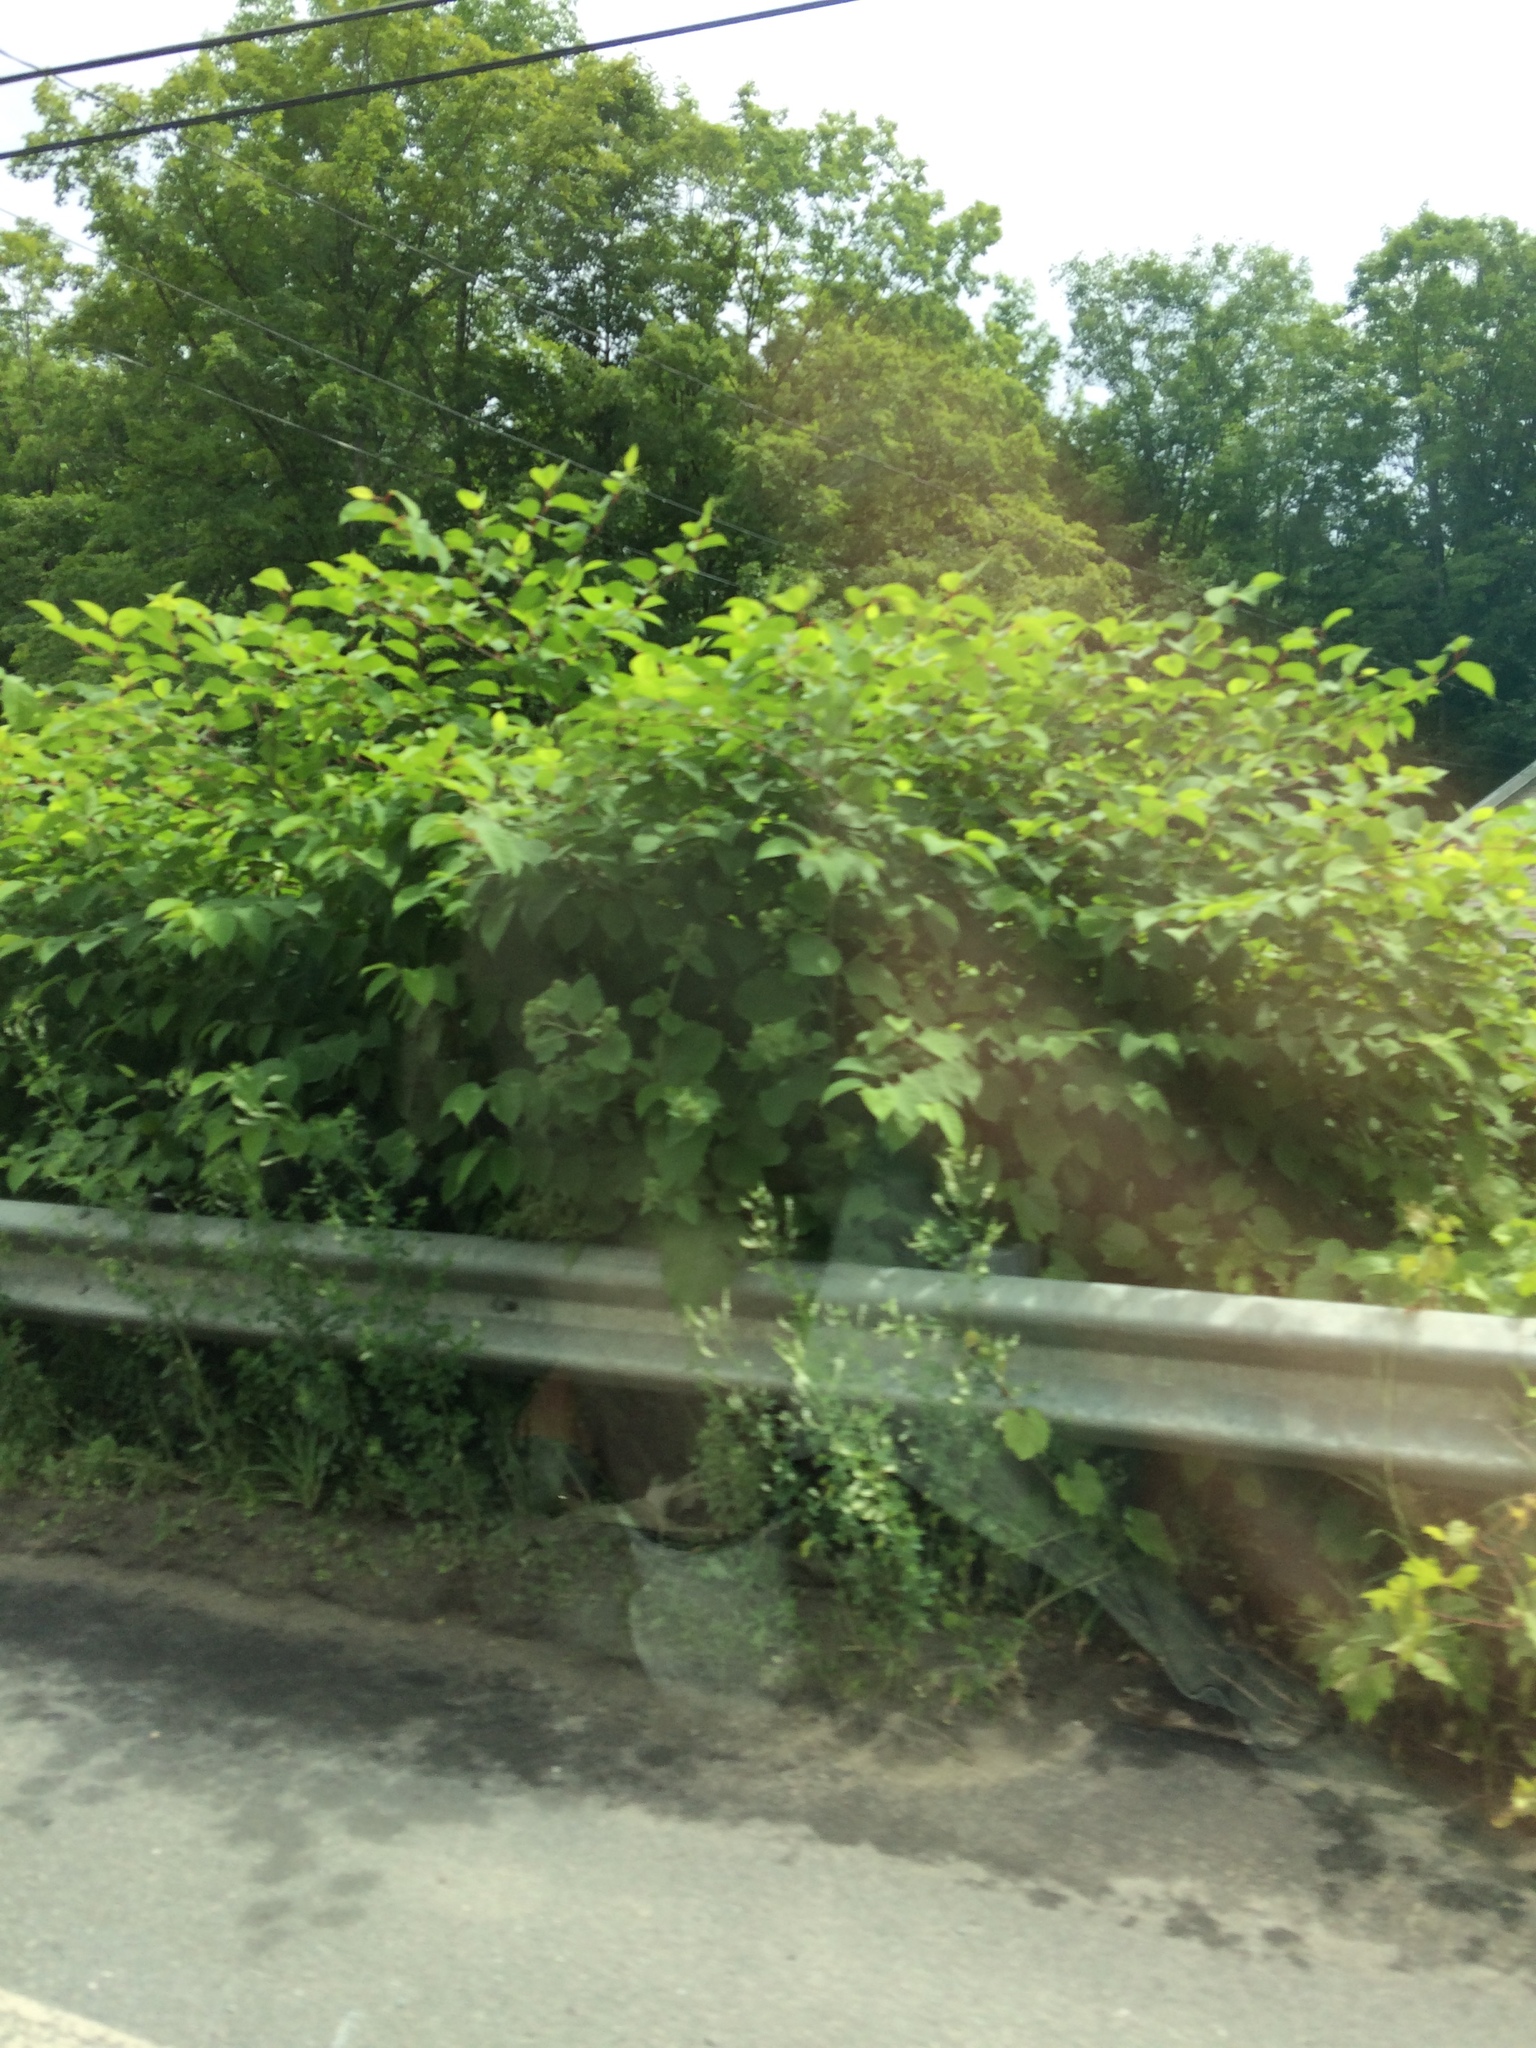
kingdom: Plantae
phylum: Tracheophyta
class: Magnoliopsida
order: Caryophyllales
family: Polygonaceae
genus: Reynoutria
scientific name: Reynoutria japonica
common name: Japanese knotweed
